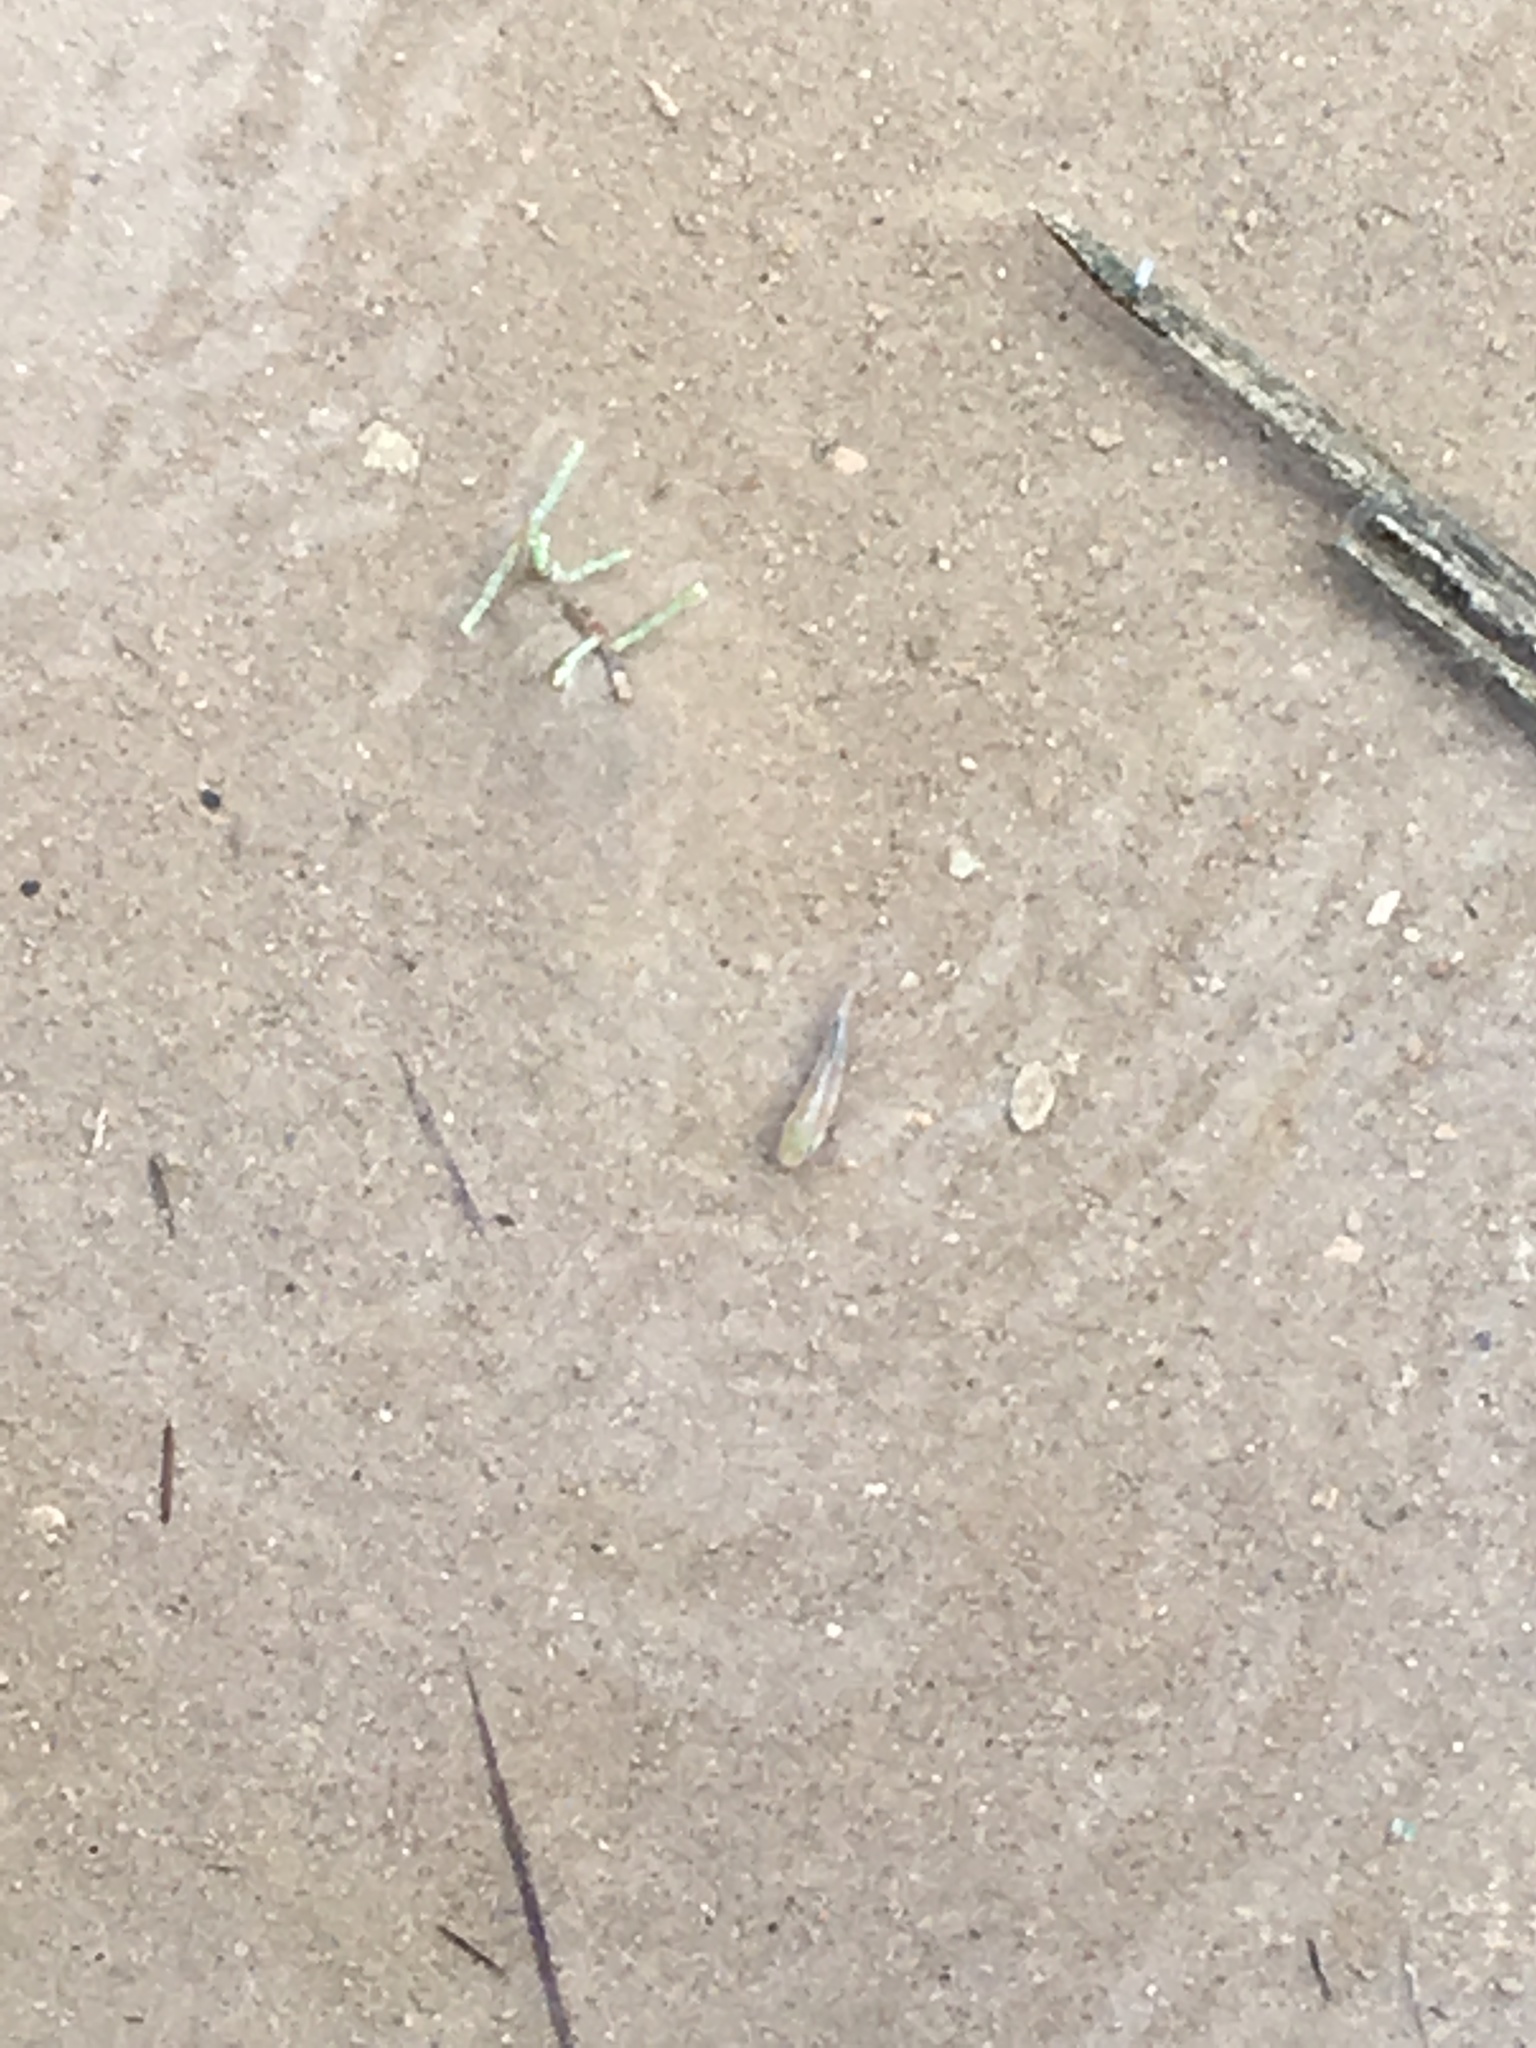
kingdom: Animalia
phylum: Chordata
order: Cyprinodontiformes
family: Cyprinodontidae
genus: Cyprinodon
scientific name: Cyprinodon salinus
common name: Cottonball marsh pupfish
